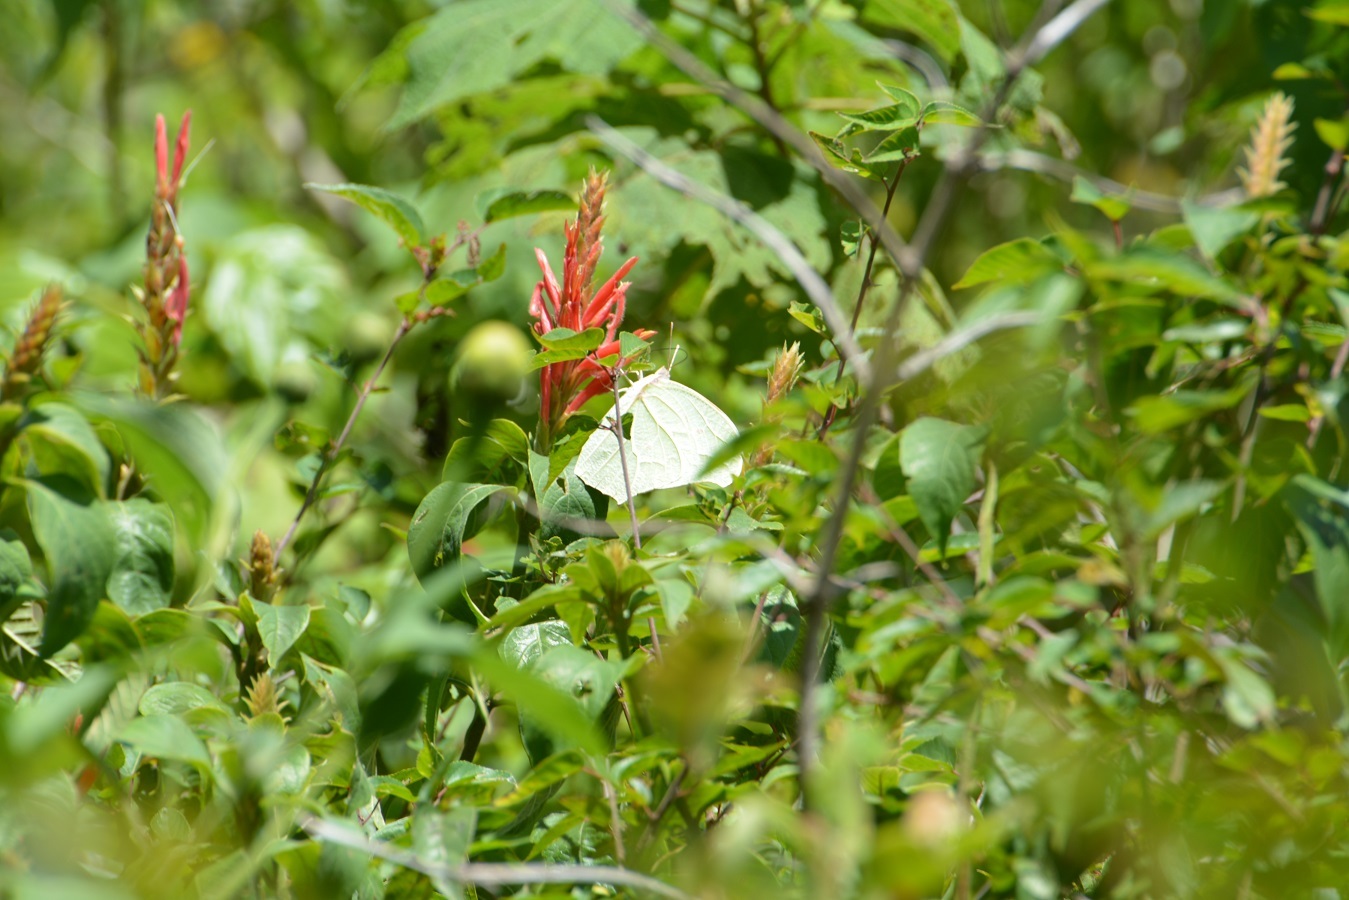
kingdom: Animalia
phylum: Arthropoda
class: Insecta
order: Lepidoptera
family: Pieridae
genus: Anteos
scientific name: Anteos clorinde
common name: White angled sulphur
